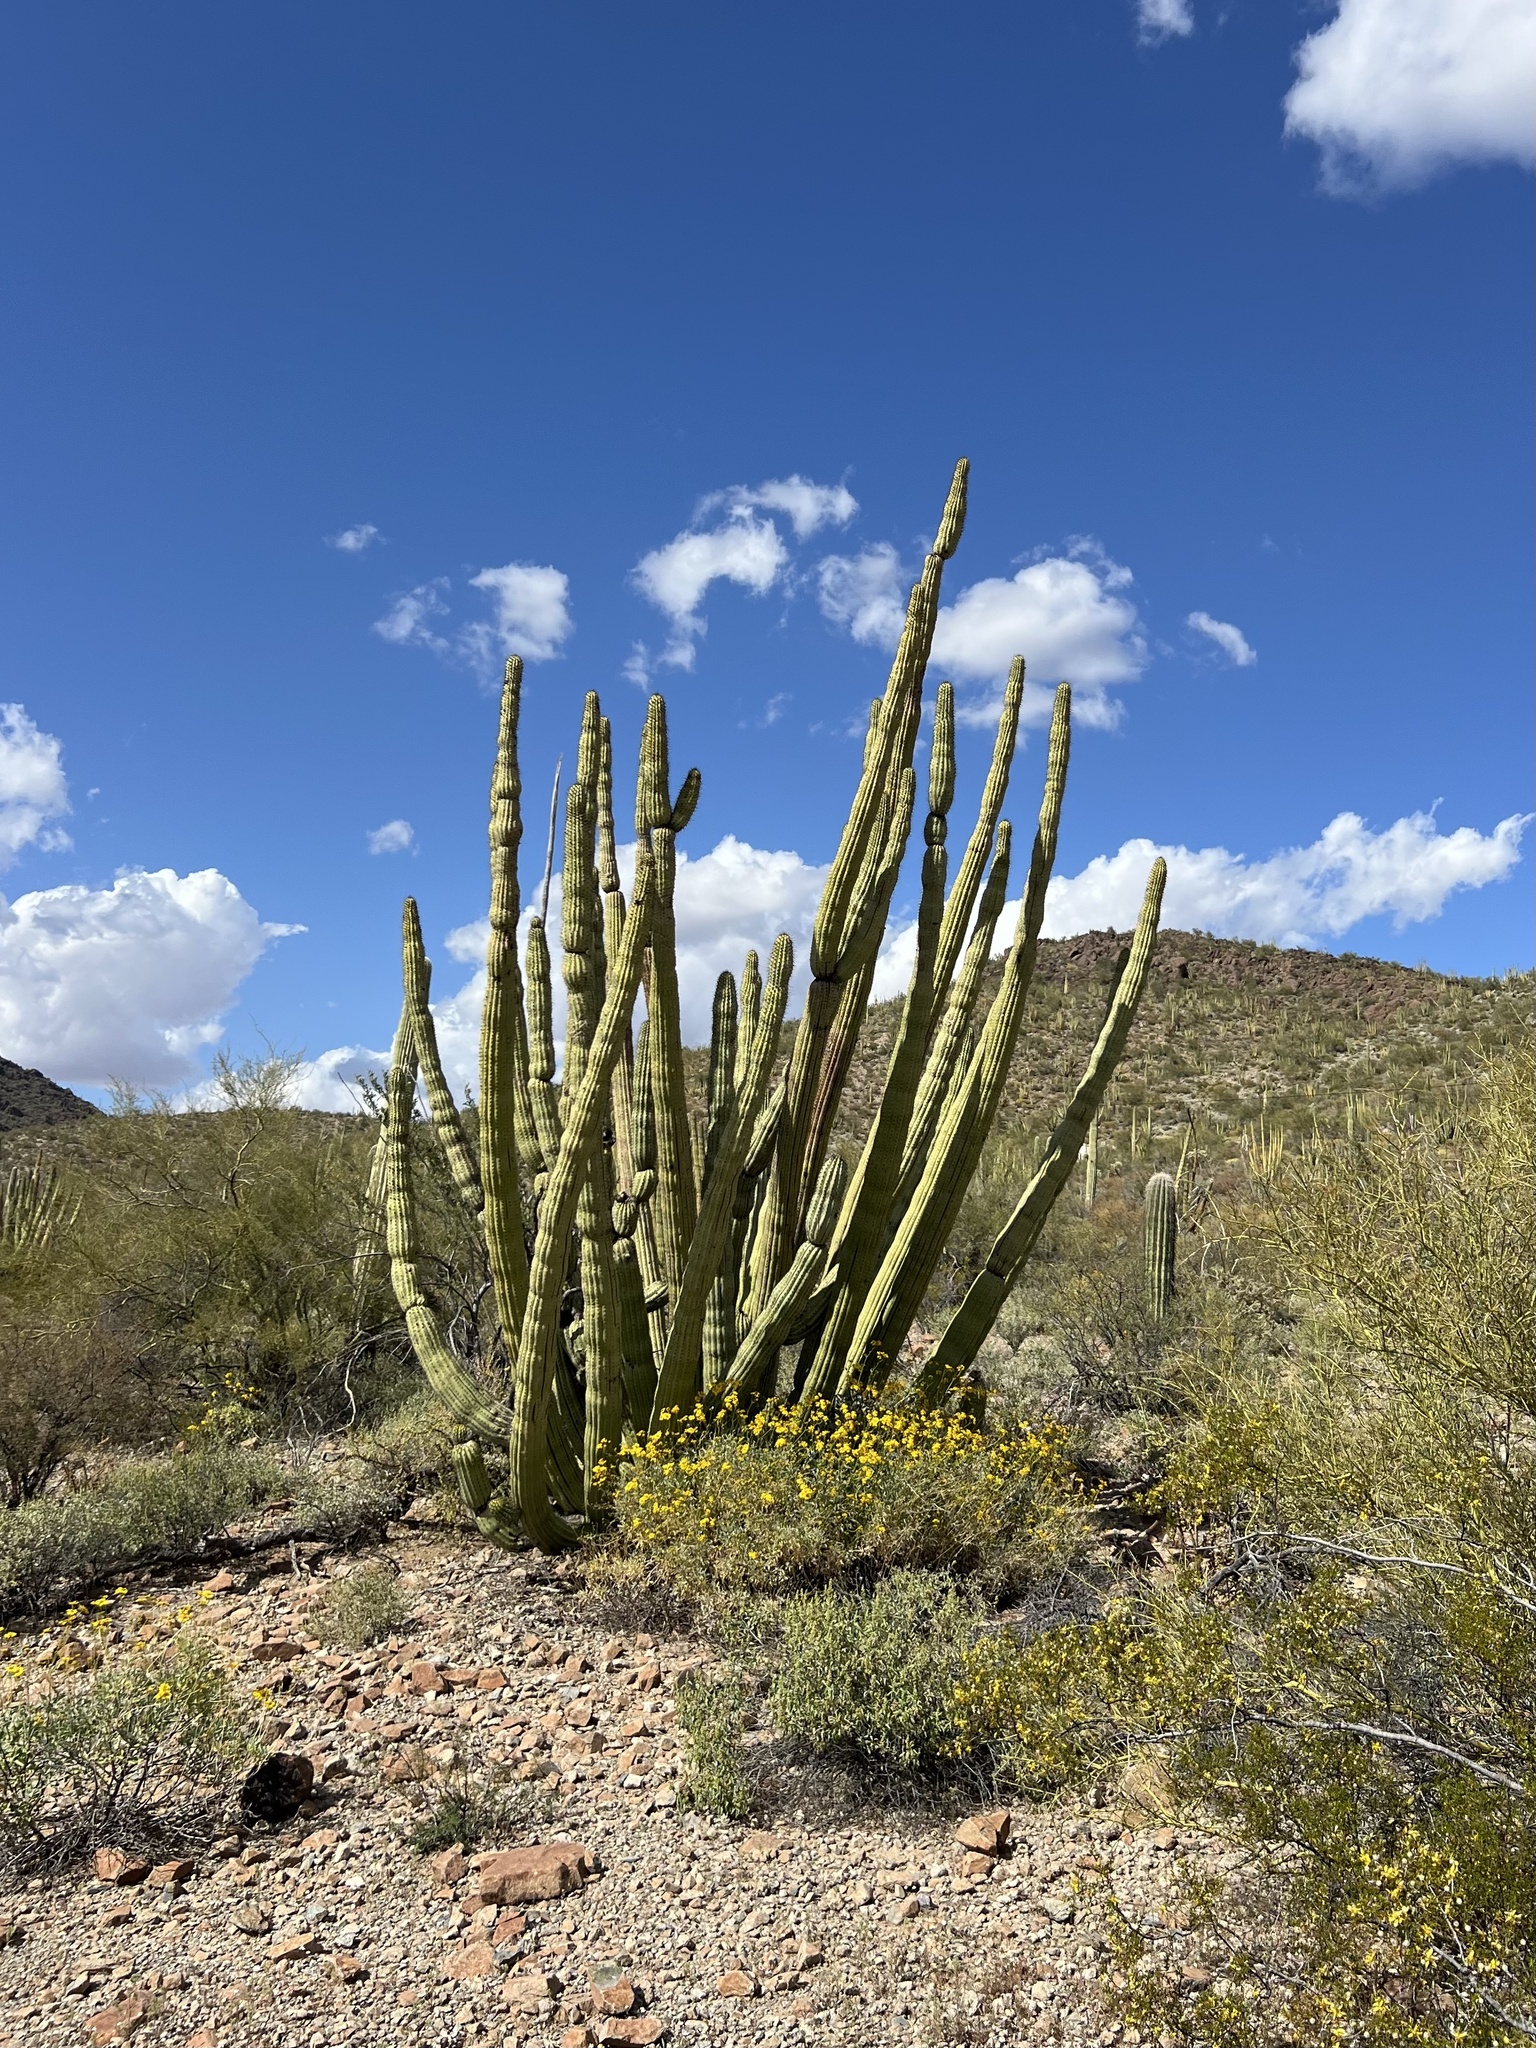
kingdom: Plantae
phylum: Tracheophyta
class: Magnoliopsida
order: Caryophyllales
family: Cactaceae
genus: Stenocereus
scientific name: Stenocereus thurberi
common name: Organ pipe cactus
